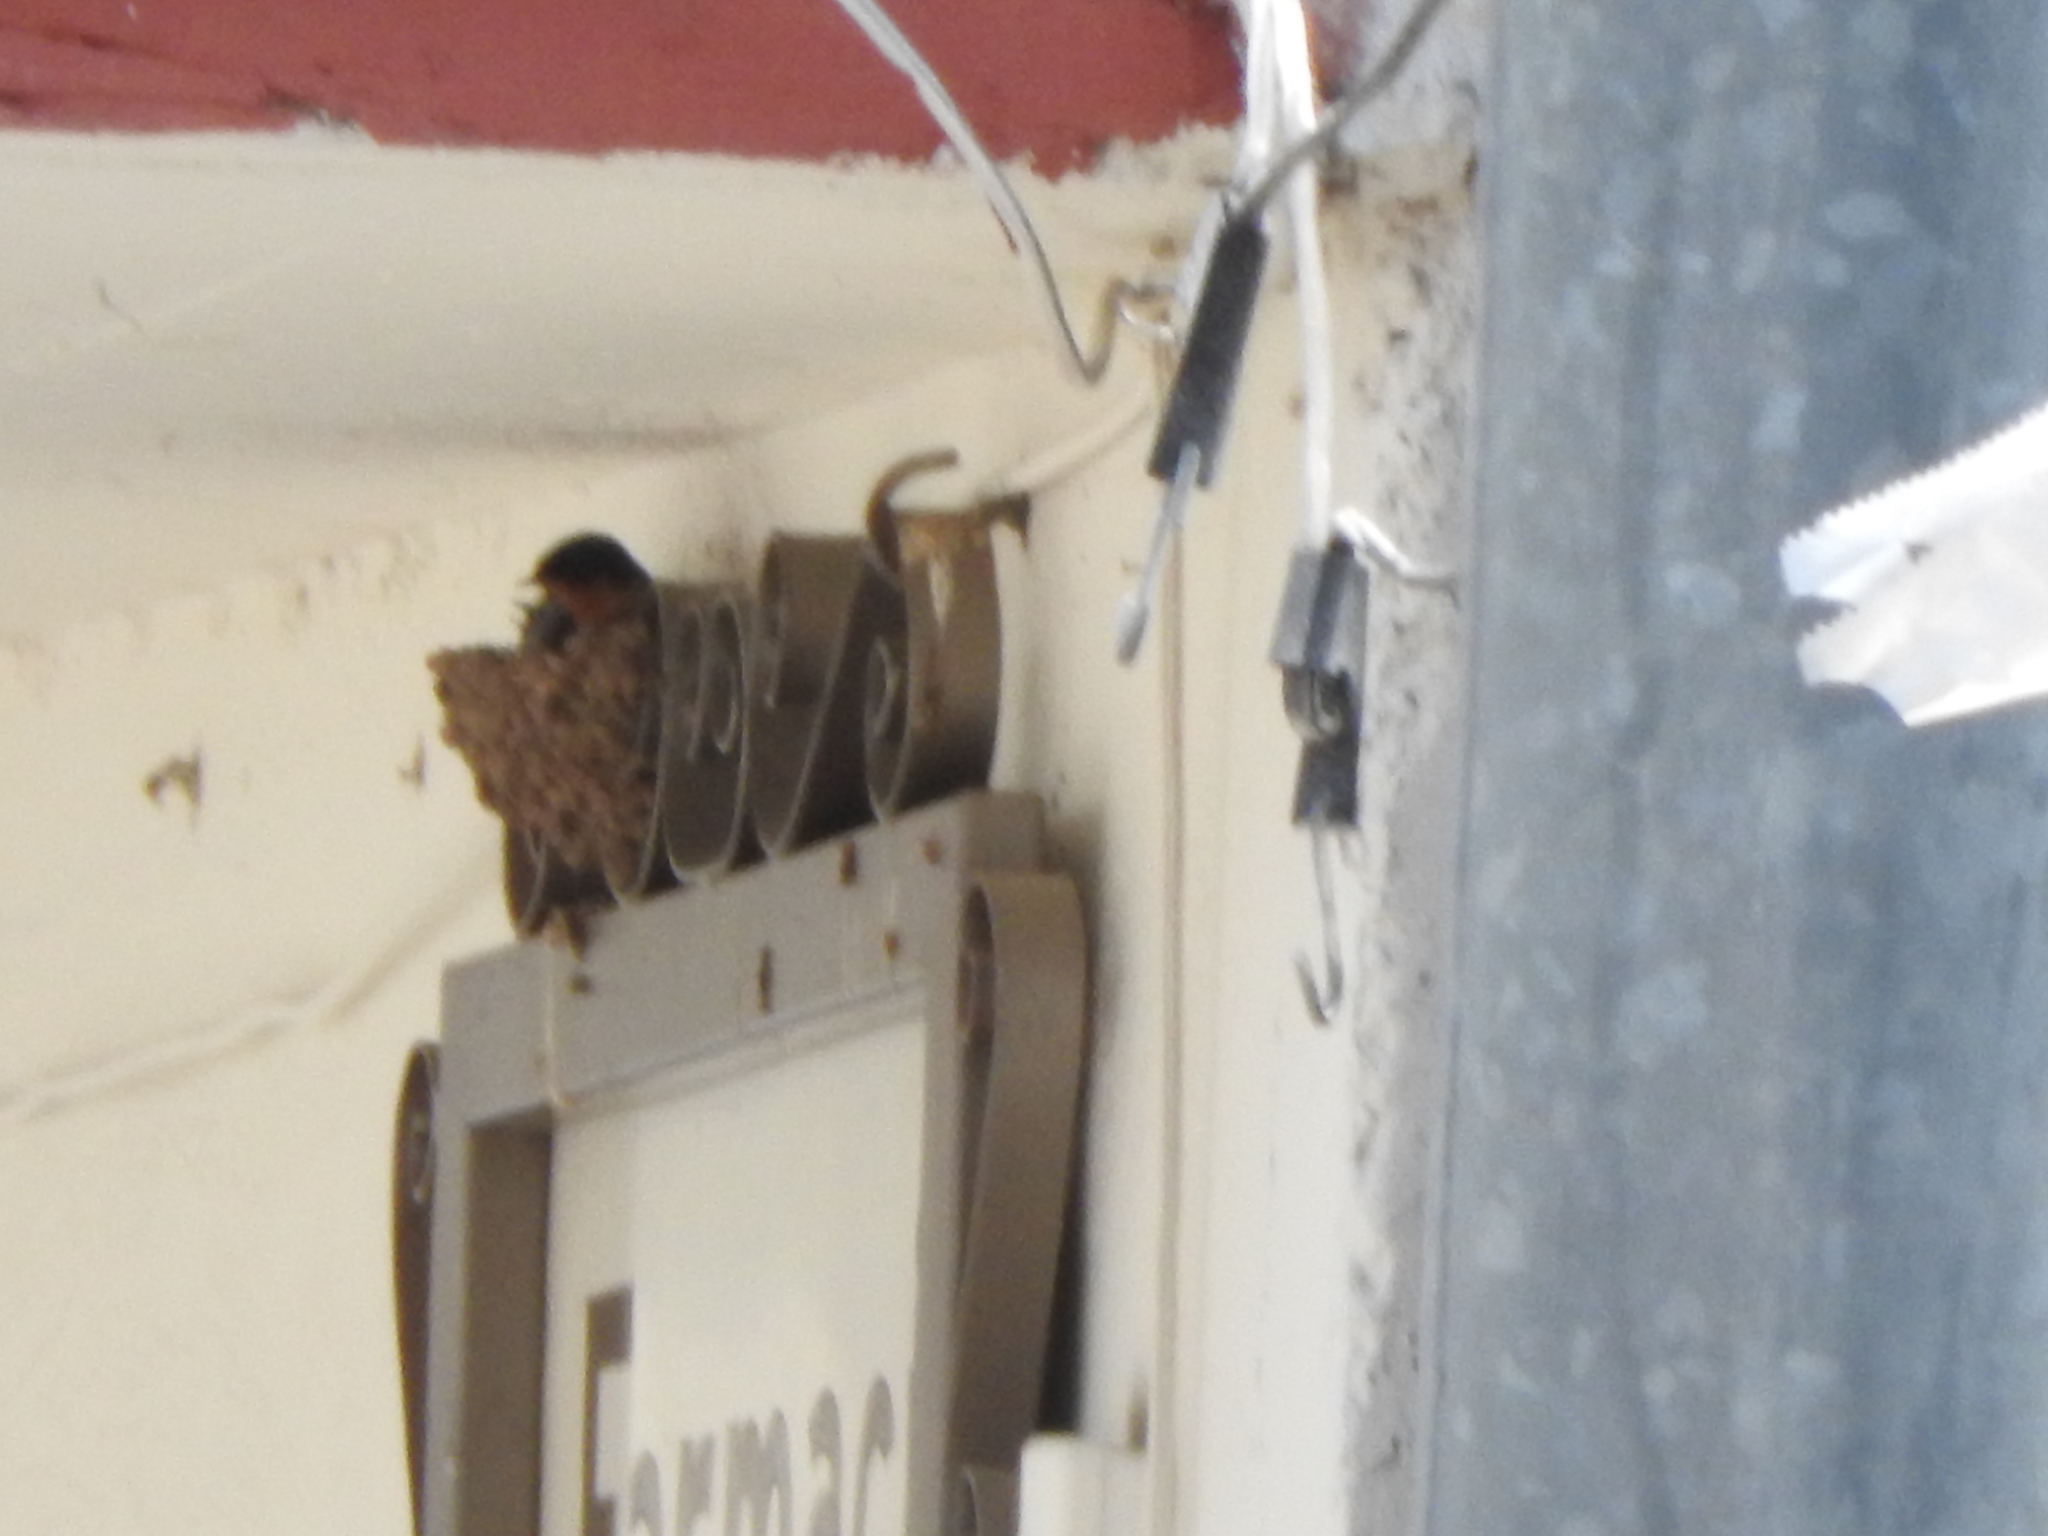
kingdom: Animalia
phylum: Chordata
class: Aves
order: Passeriformes
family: Hirundinidae
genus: Hirundo
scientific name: Hirundo rustica
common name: Barn swallow
